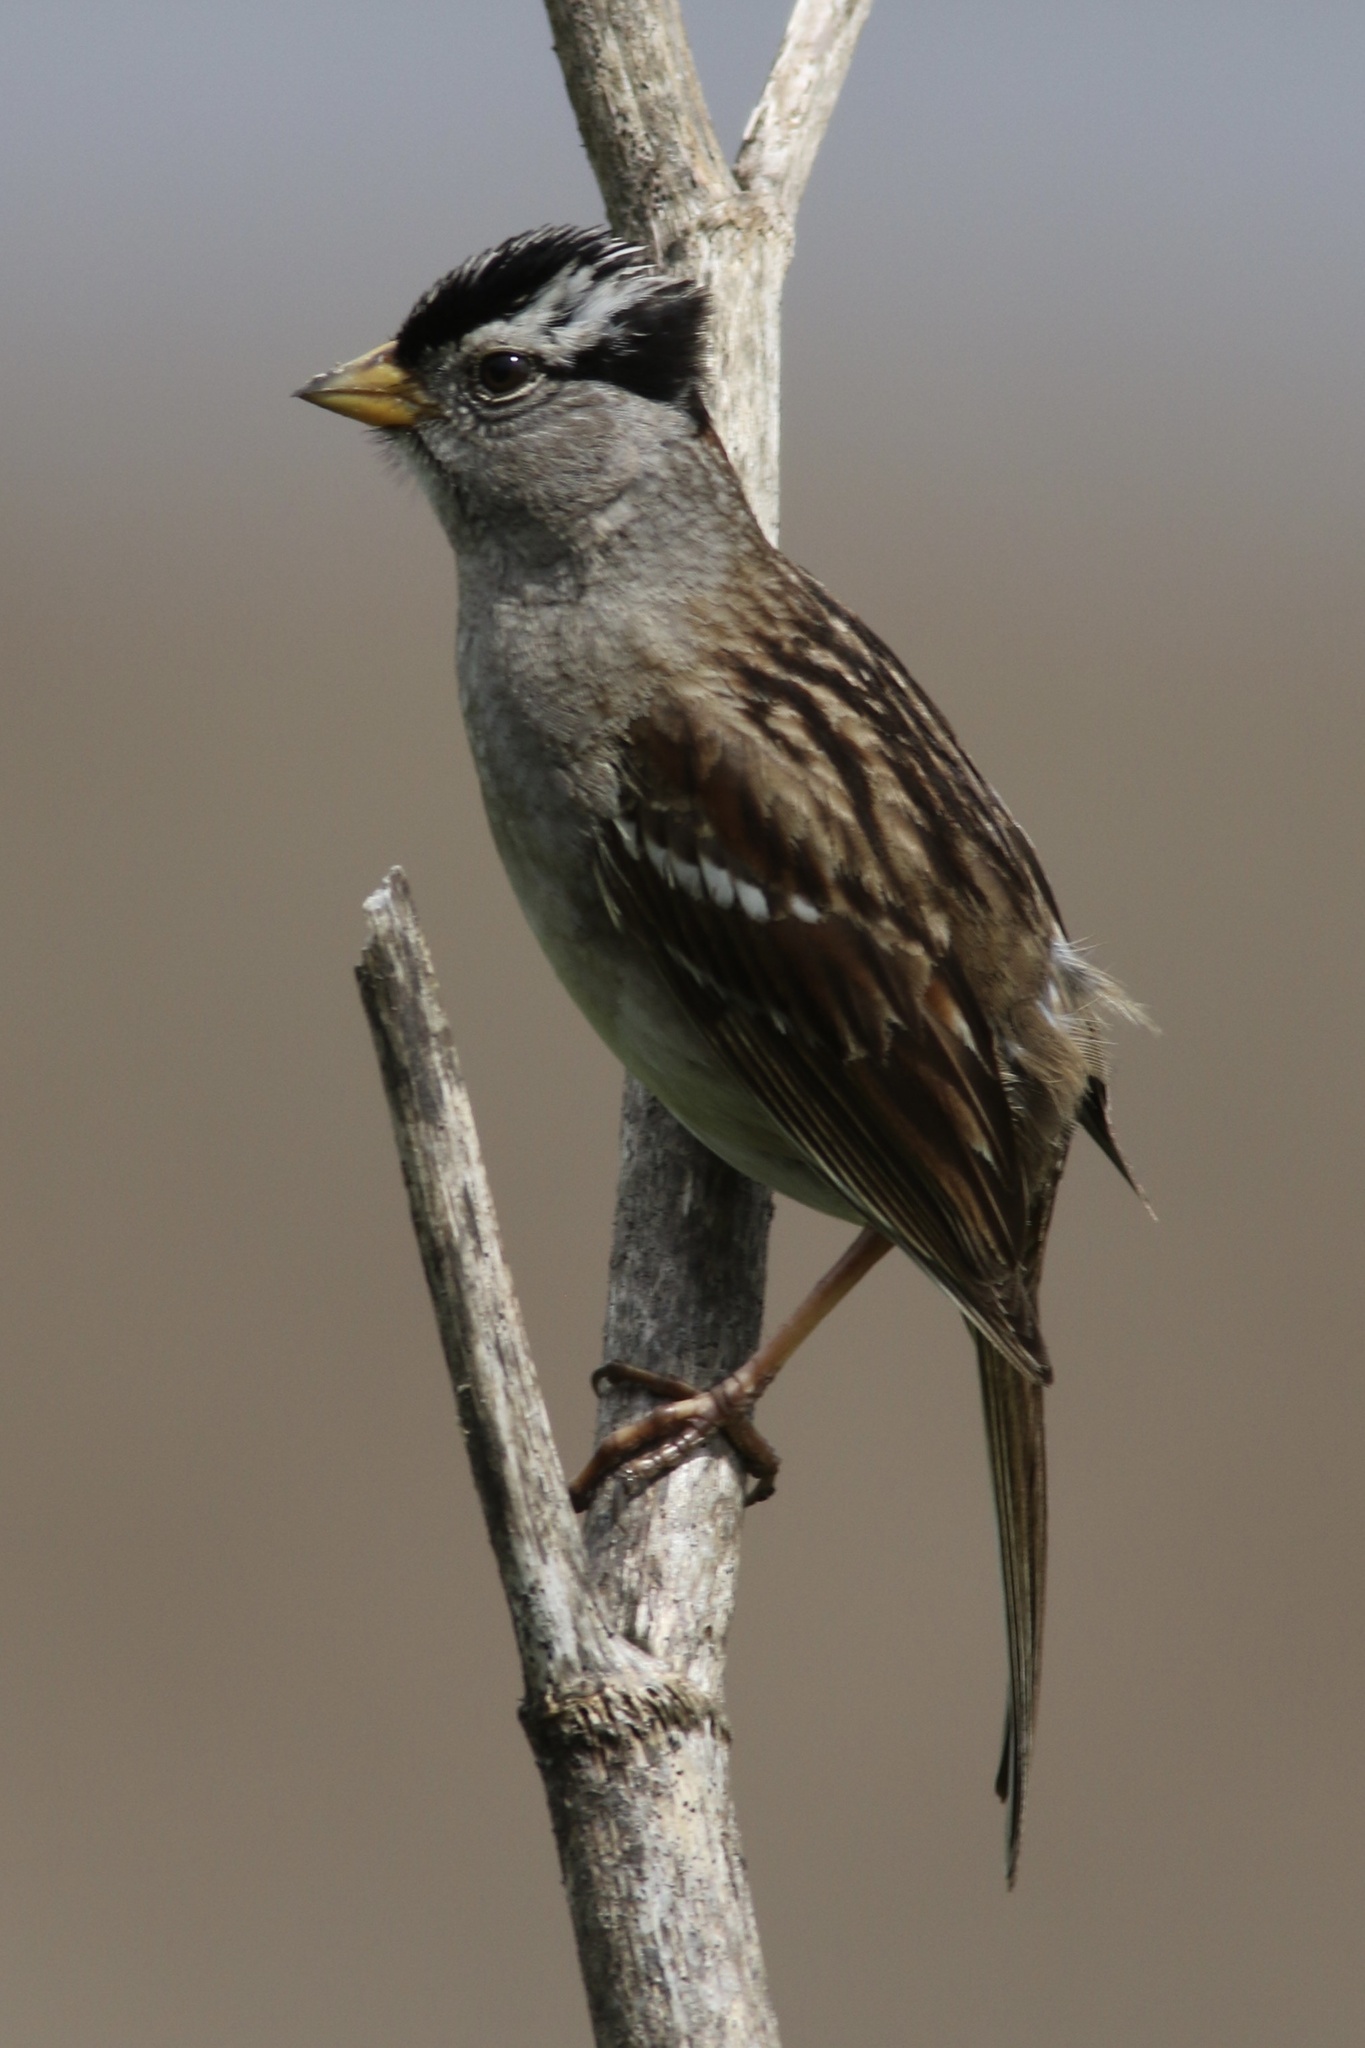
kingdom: Animalia
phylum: Chordata
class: Aves
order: Passeriformes
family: Passerellidae
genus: Zonotrichia
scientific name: Zonotrichia leucophrys
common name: White-crowned sparrow
